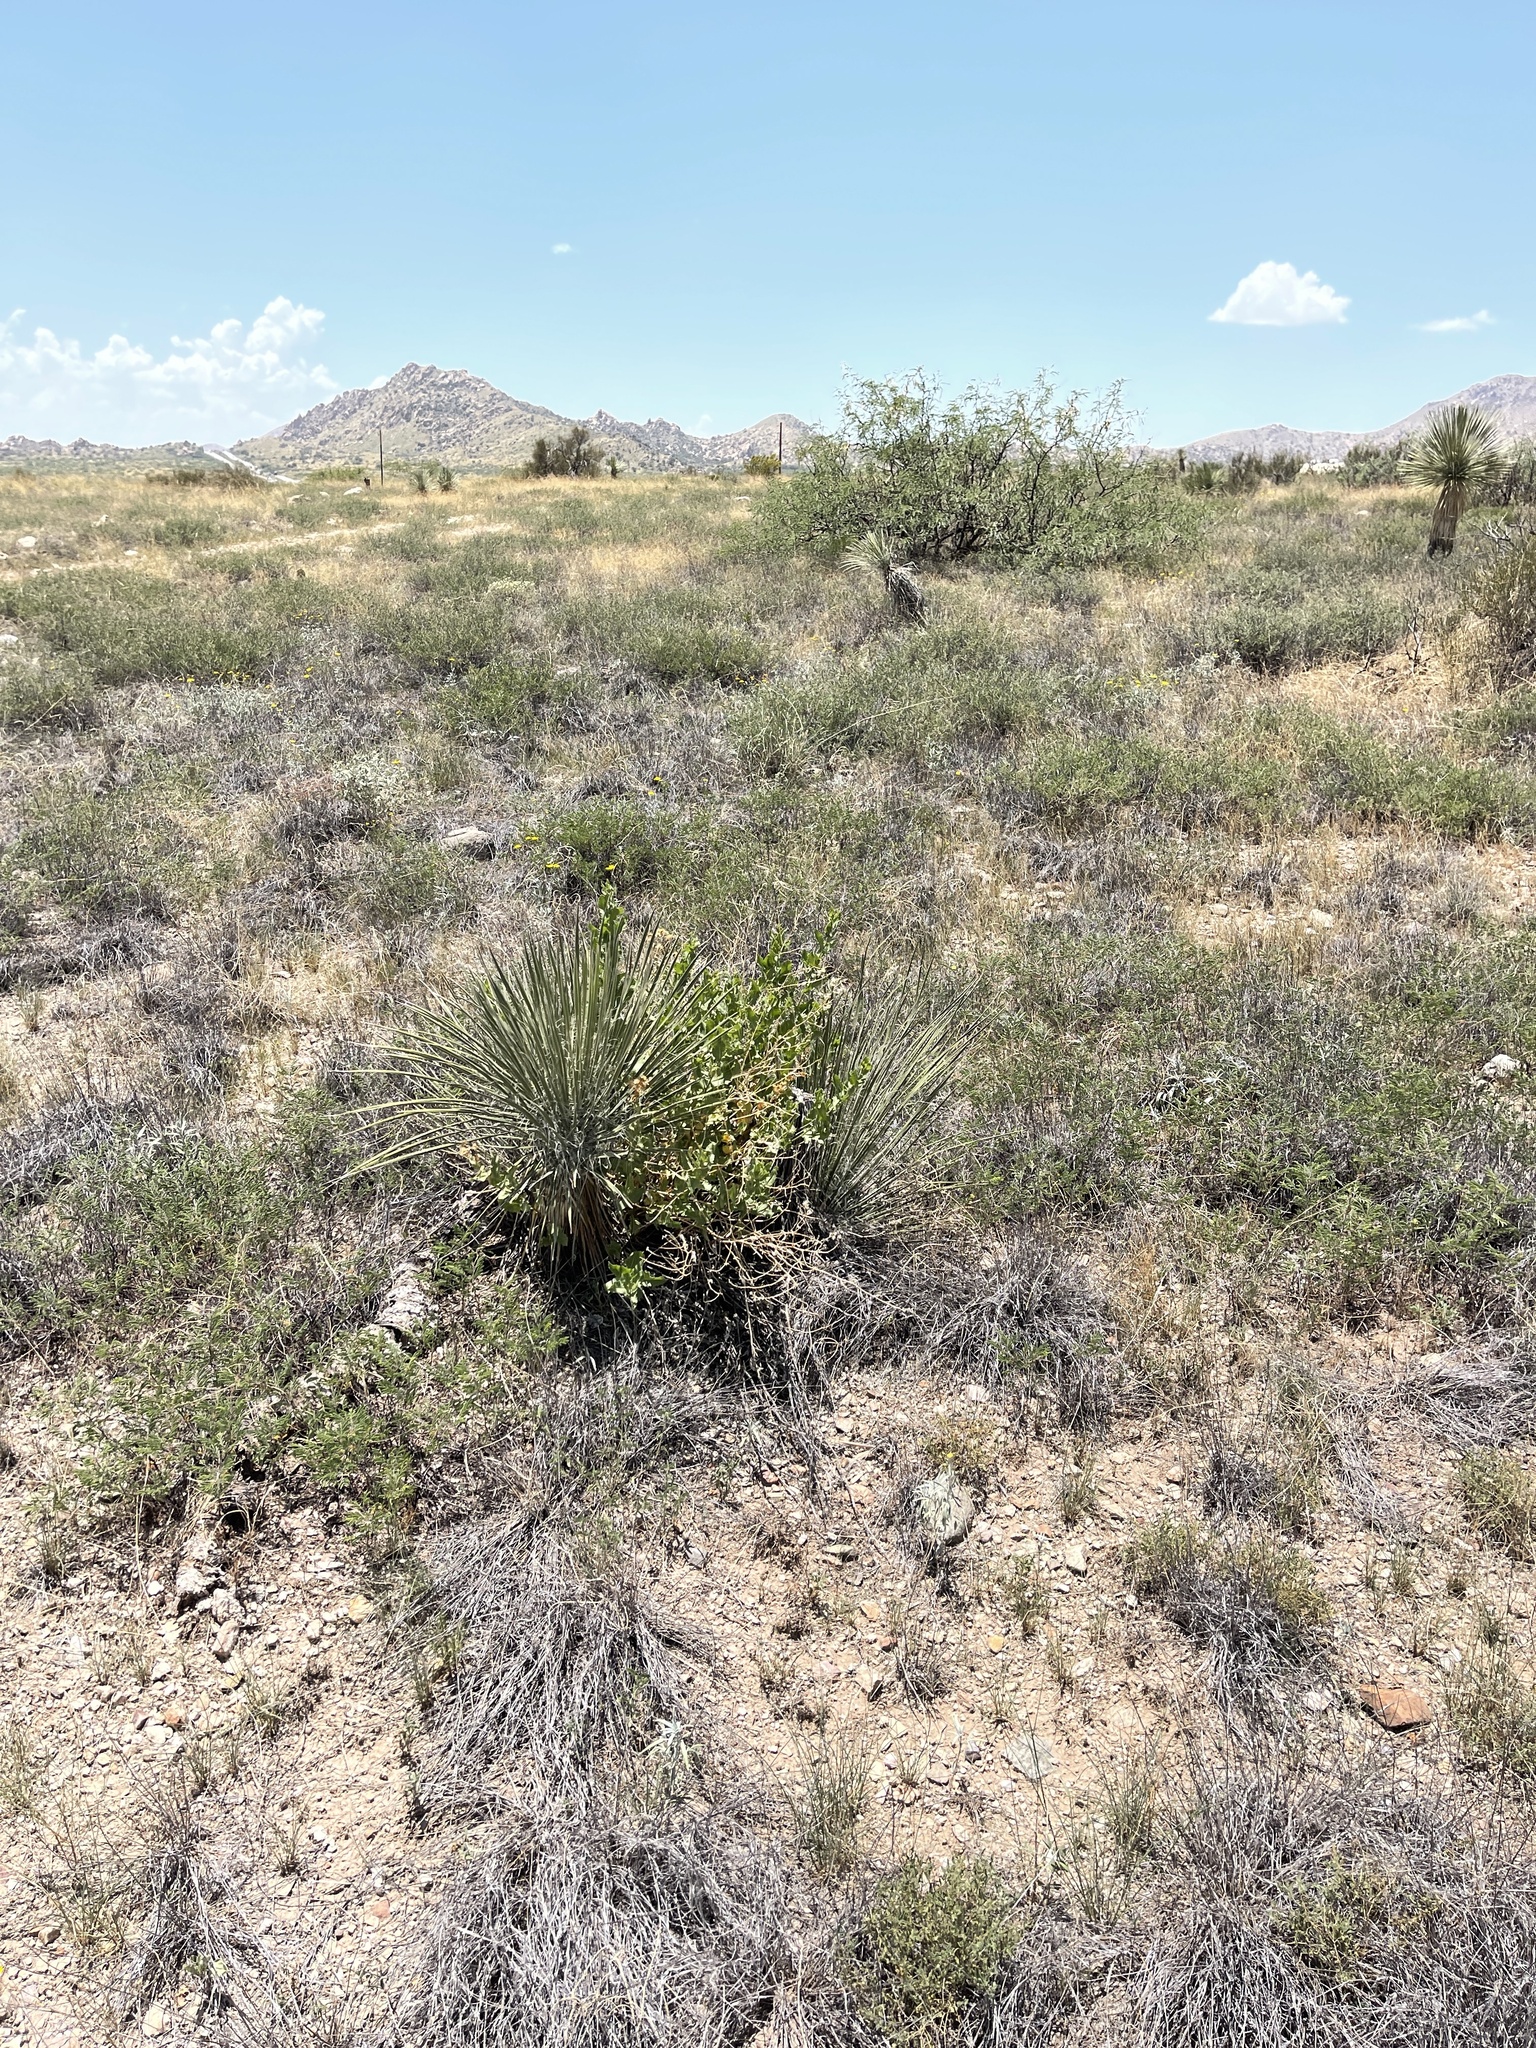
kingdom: Plantae
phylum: Tracheophyta
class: Magnoliopsida
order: Asterales
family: Asteraceae
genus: Acourtia
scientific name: Acourtia wrightii
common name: Brownfoot
